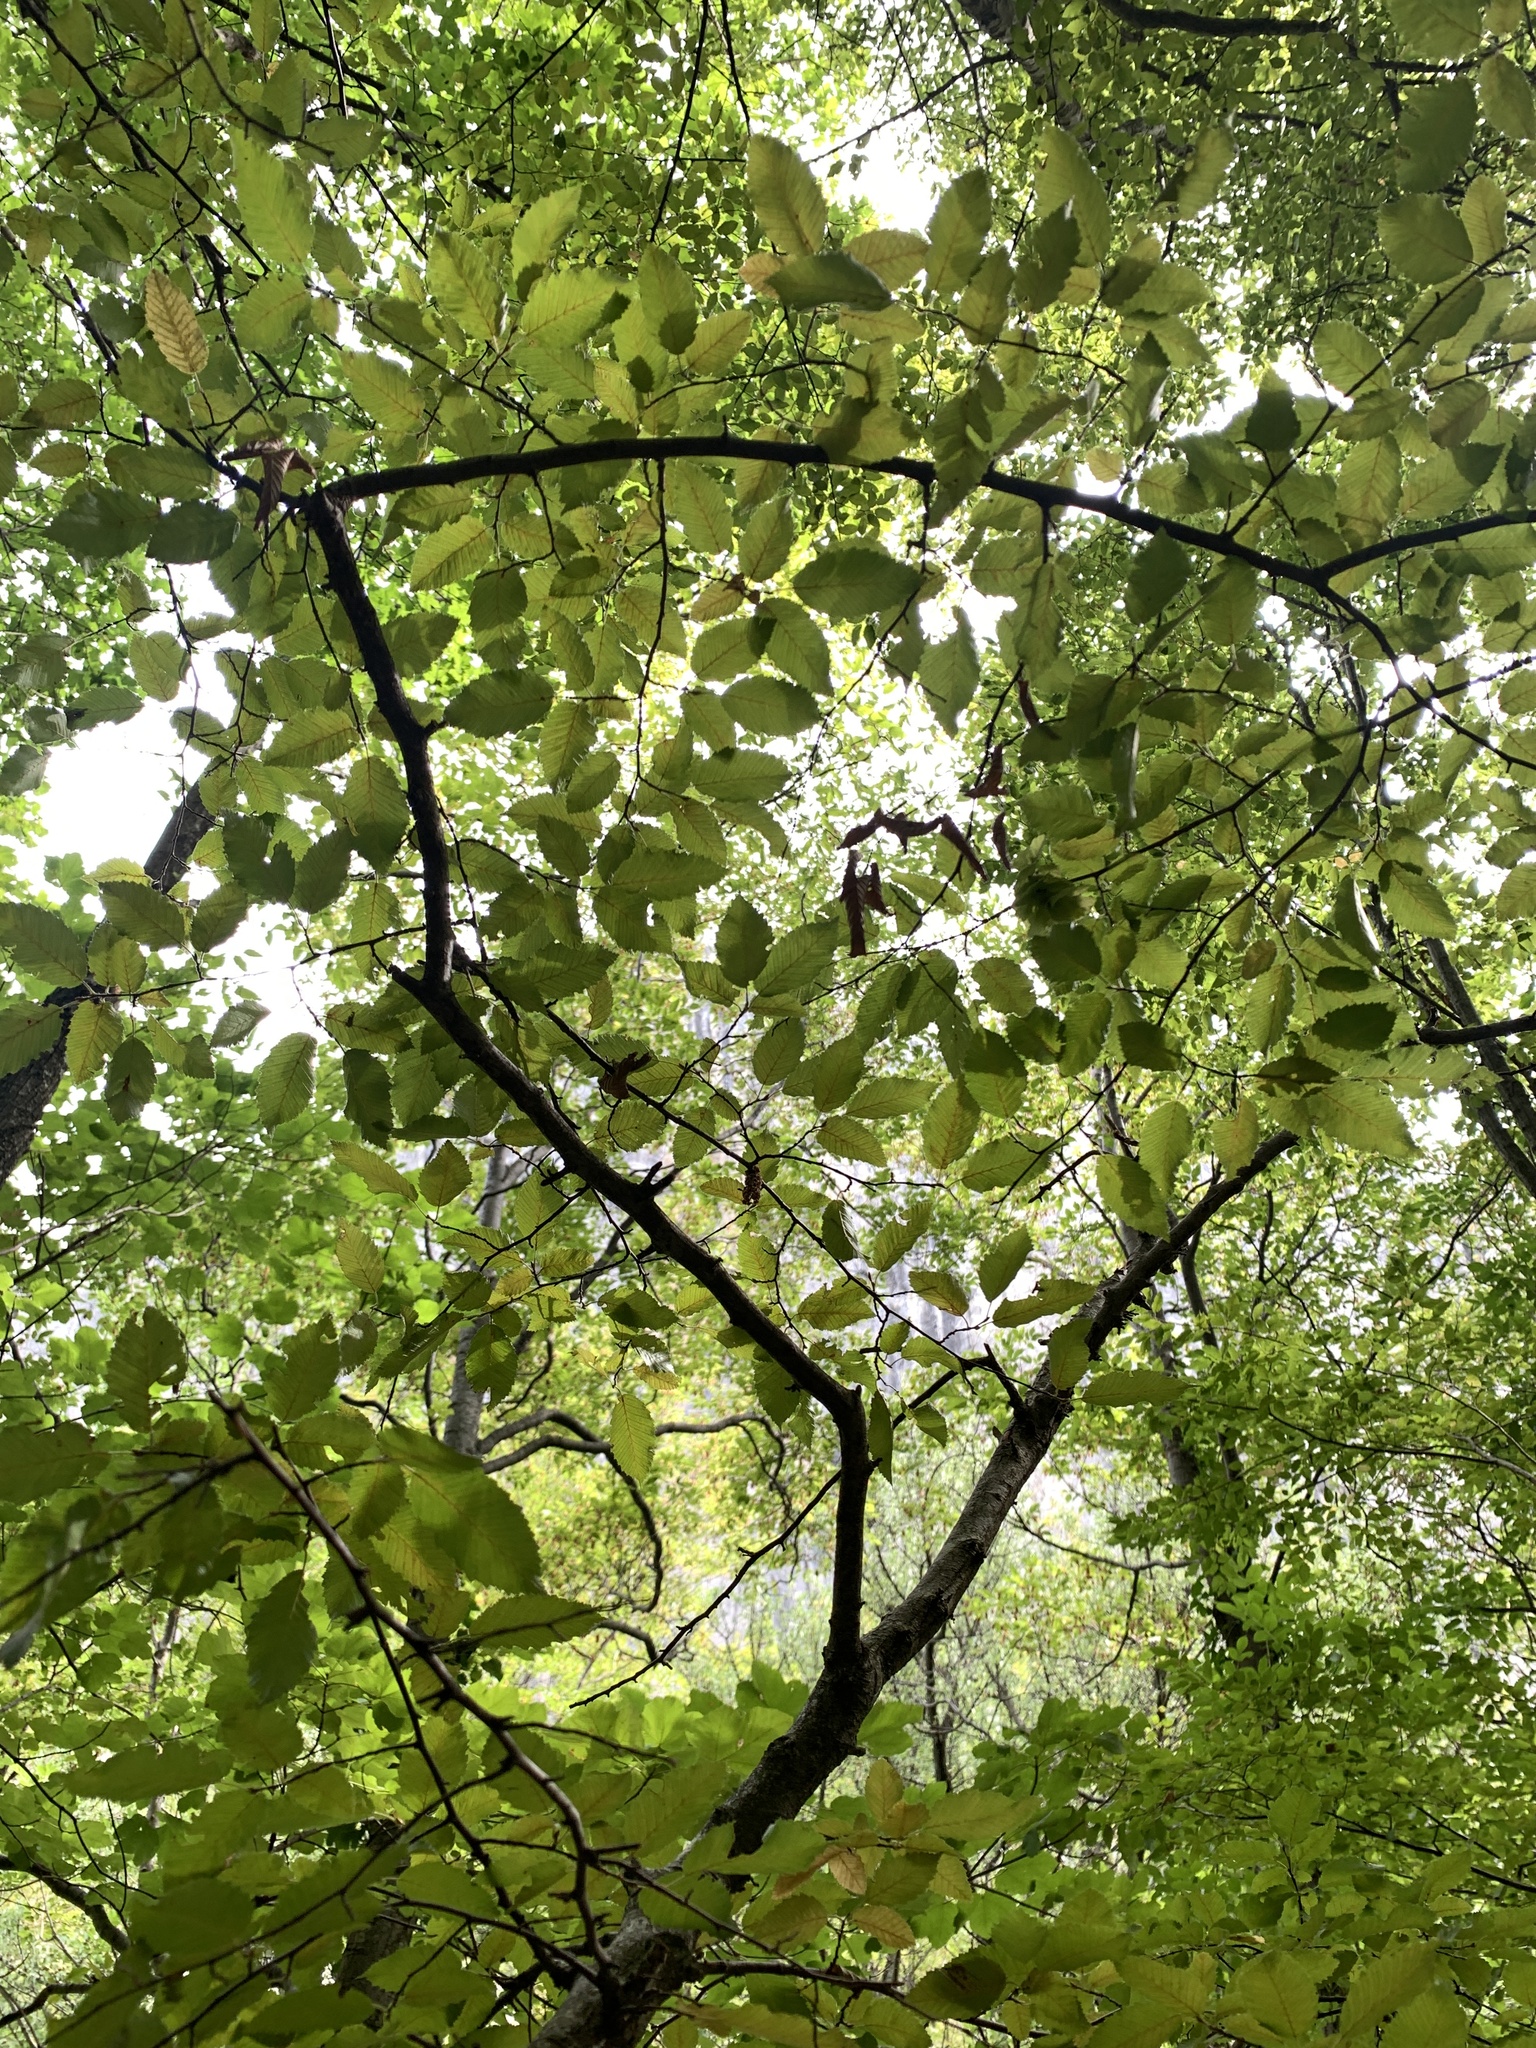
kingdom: Plantae
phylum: Tracheophyta
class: Magnoliopsida
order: Fagales
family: Betulaceae
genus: Carpinus
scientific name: Carpinus orientalis
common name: Eastern hornbeam
